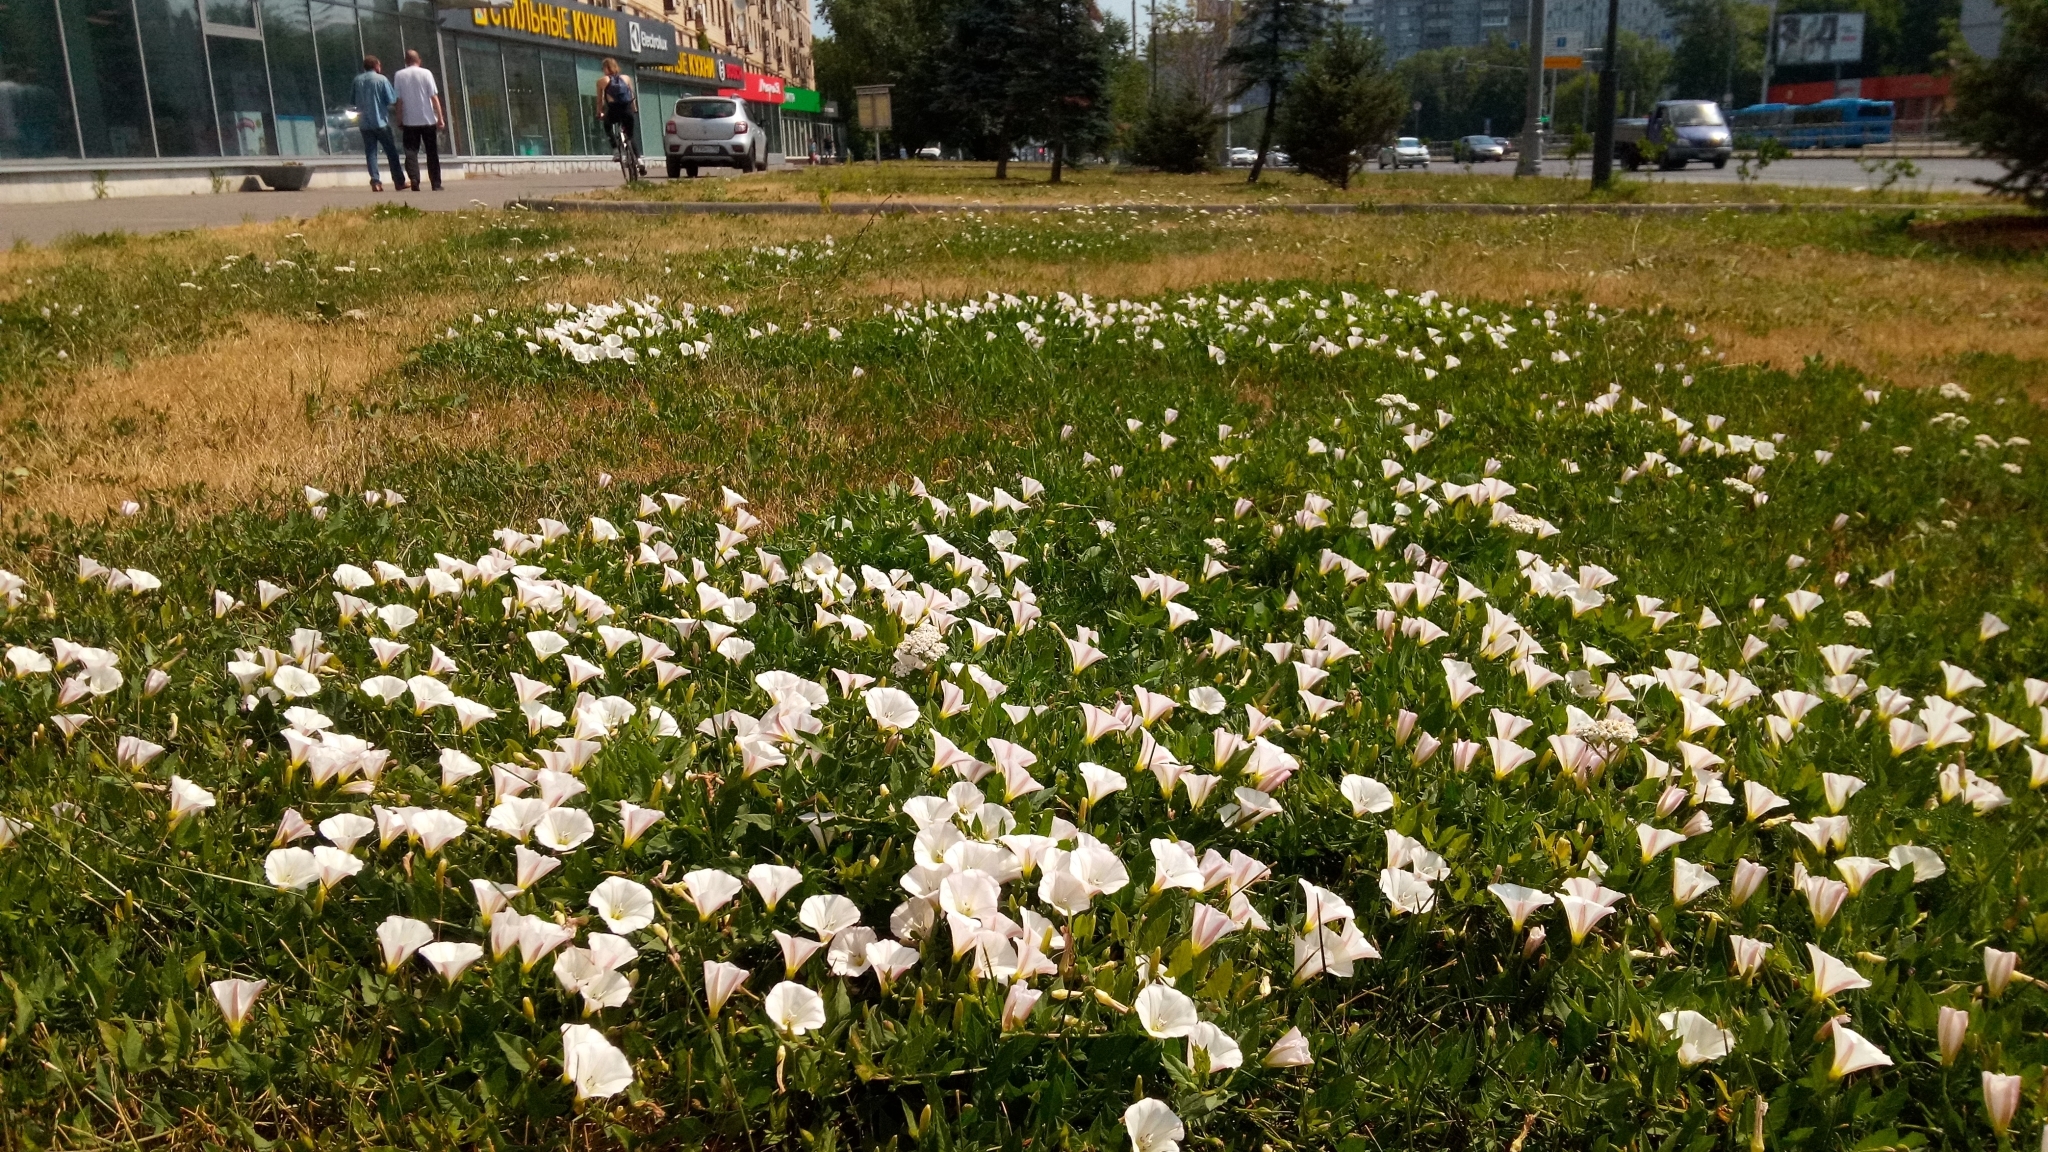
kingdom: Plantae
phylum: Tracheophyta
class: Magnoliopsida
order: Solanales
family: Convolvulaceae
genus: Convolvulus
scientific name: Convolvulus arvensis
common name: Field bindweed
